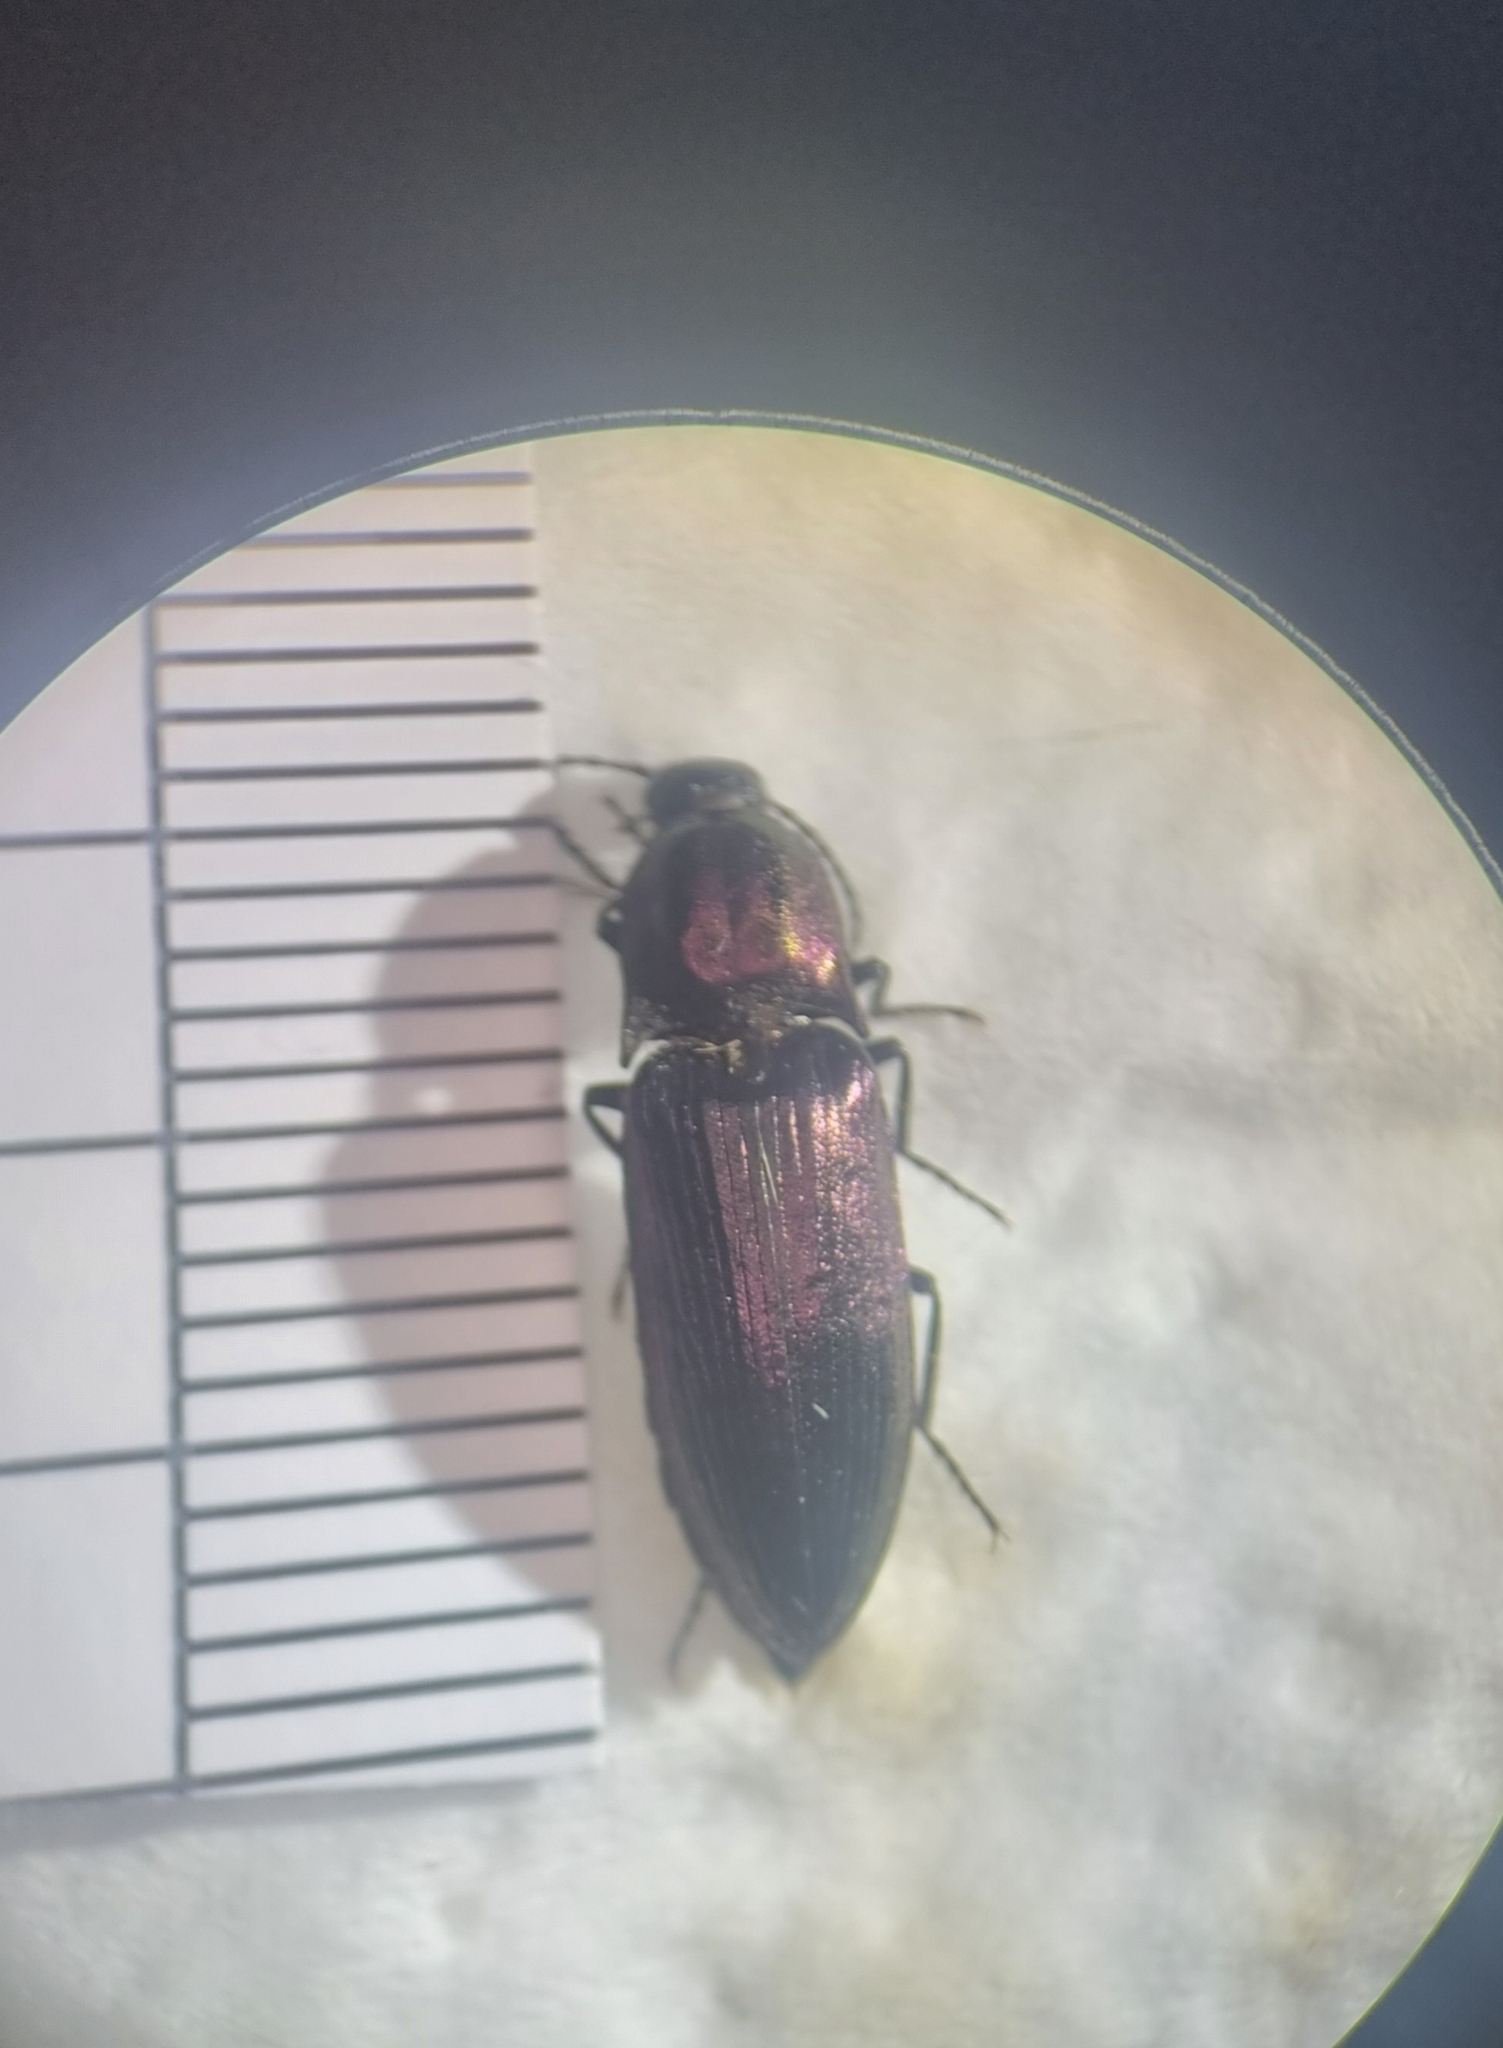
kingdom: Animalia
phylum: Arthropoda
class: Insecta
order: Coleoptera
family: Elateridae
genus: Ctenicera
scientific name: Ctenicera cuprea
